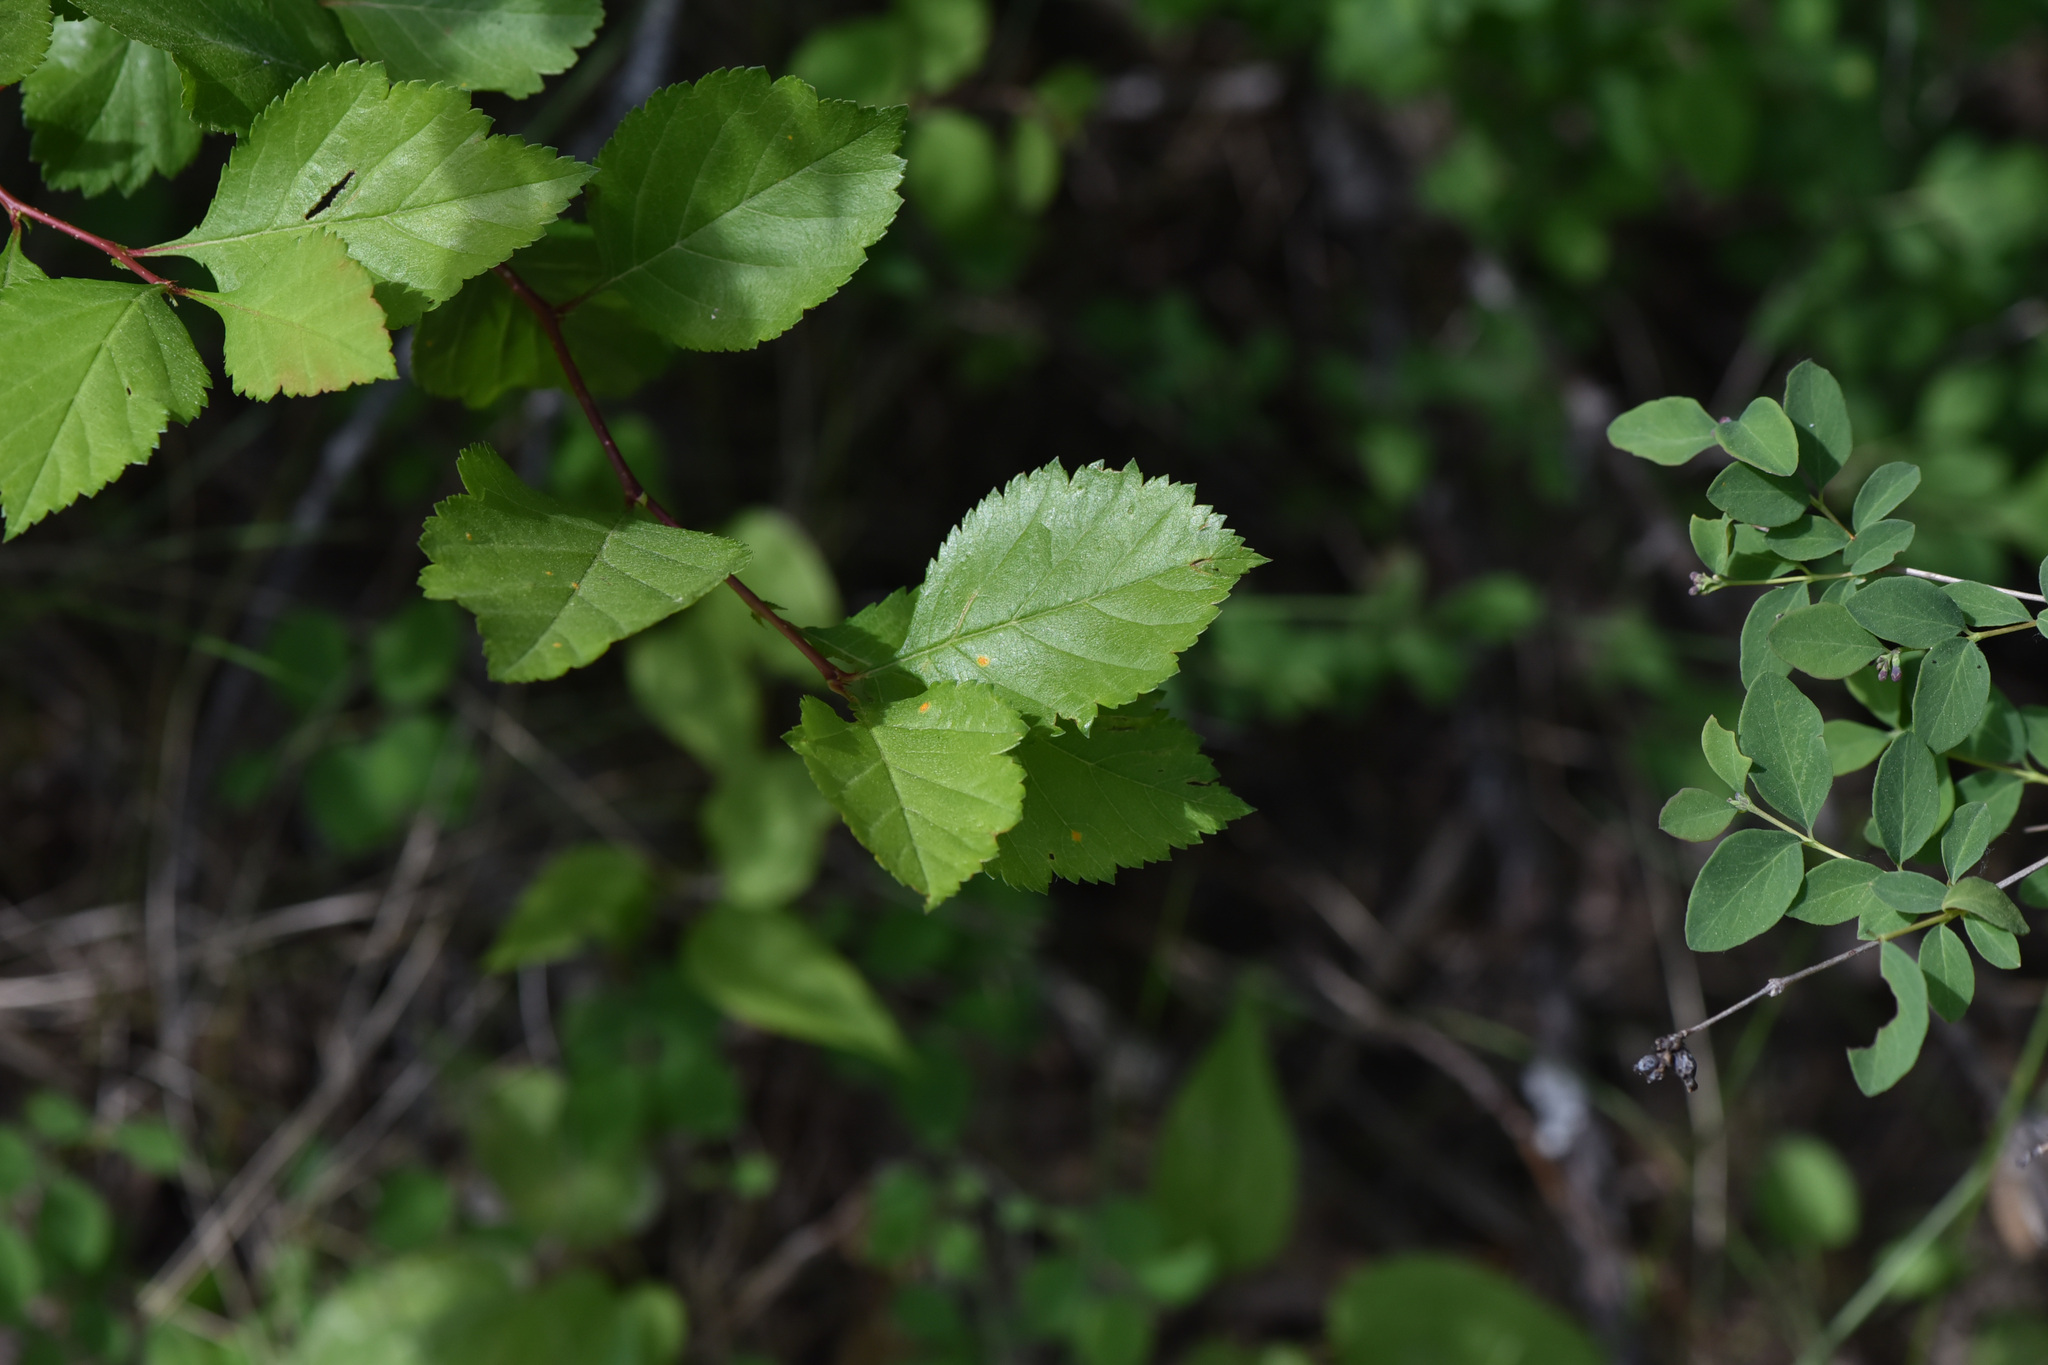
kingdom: Plantae
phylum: Tracheophyta
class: Magnoliopsida
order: Fagales
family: Betulaceae
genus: Betula
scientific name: Betula occidentalis
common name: River birch
